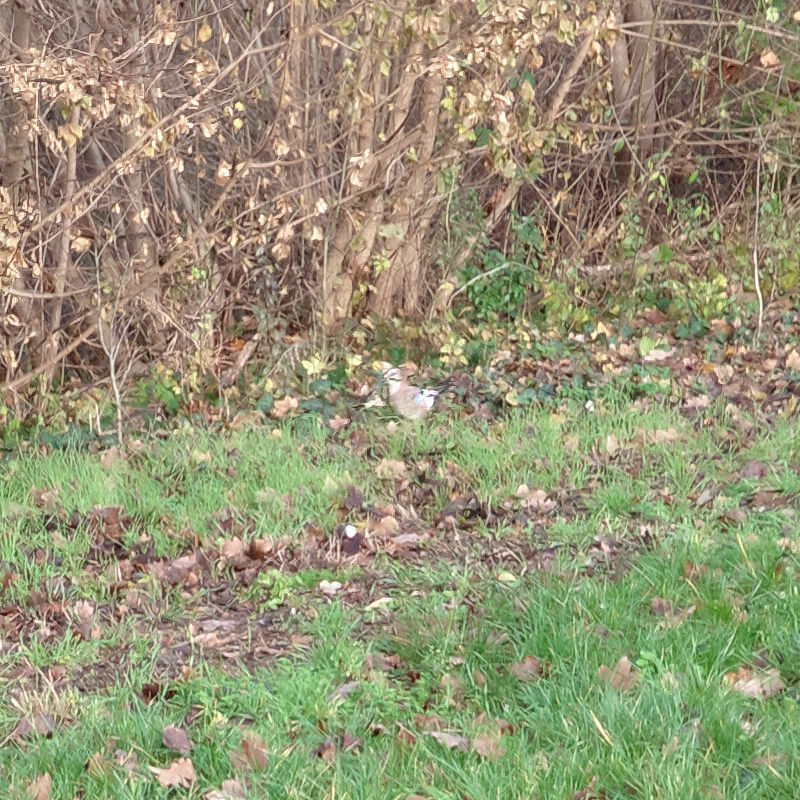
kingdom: Animalia
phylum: Chordata
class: Aves
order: Passeriformes
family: Corvidae
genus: Garrulus
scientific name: Garrulus glandarius
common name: Eurasian jay
